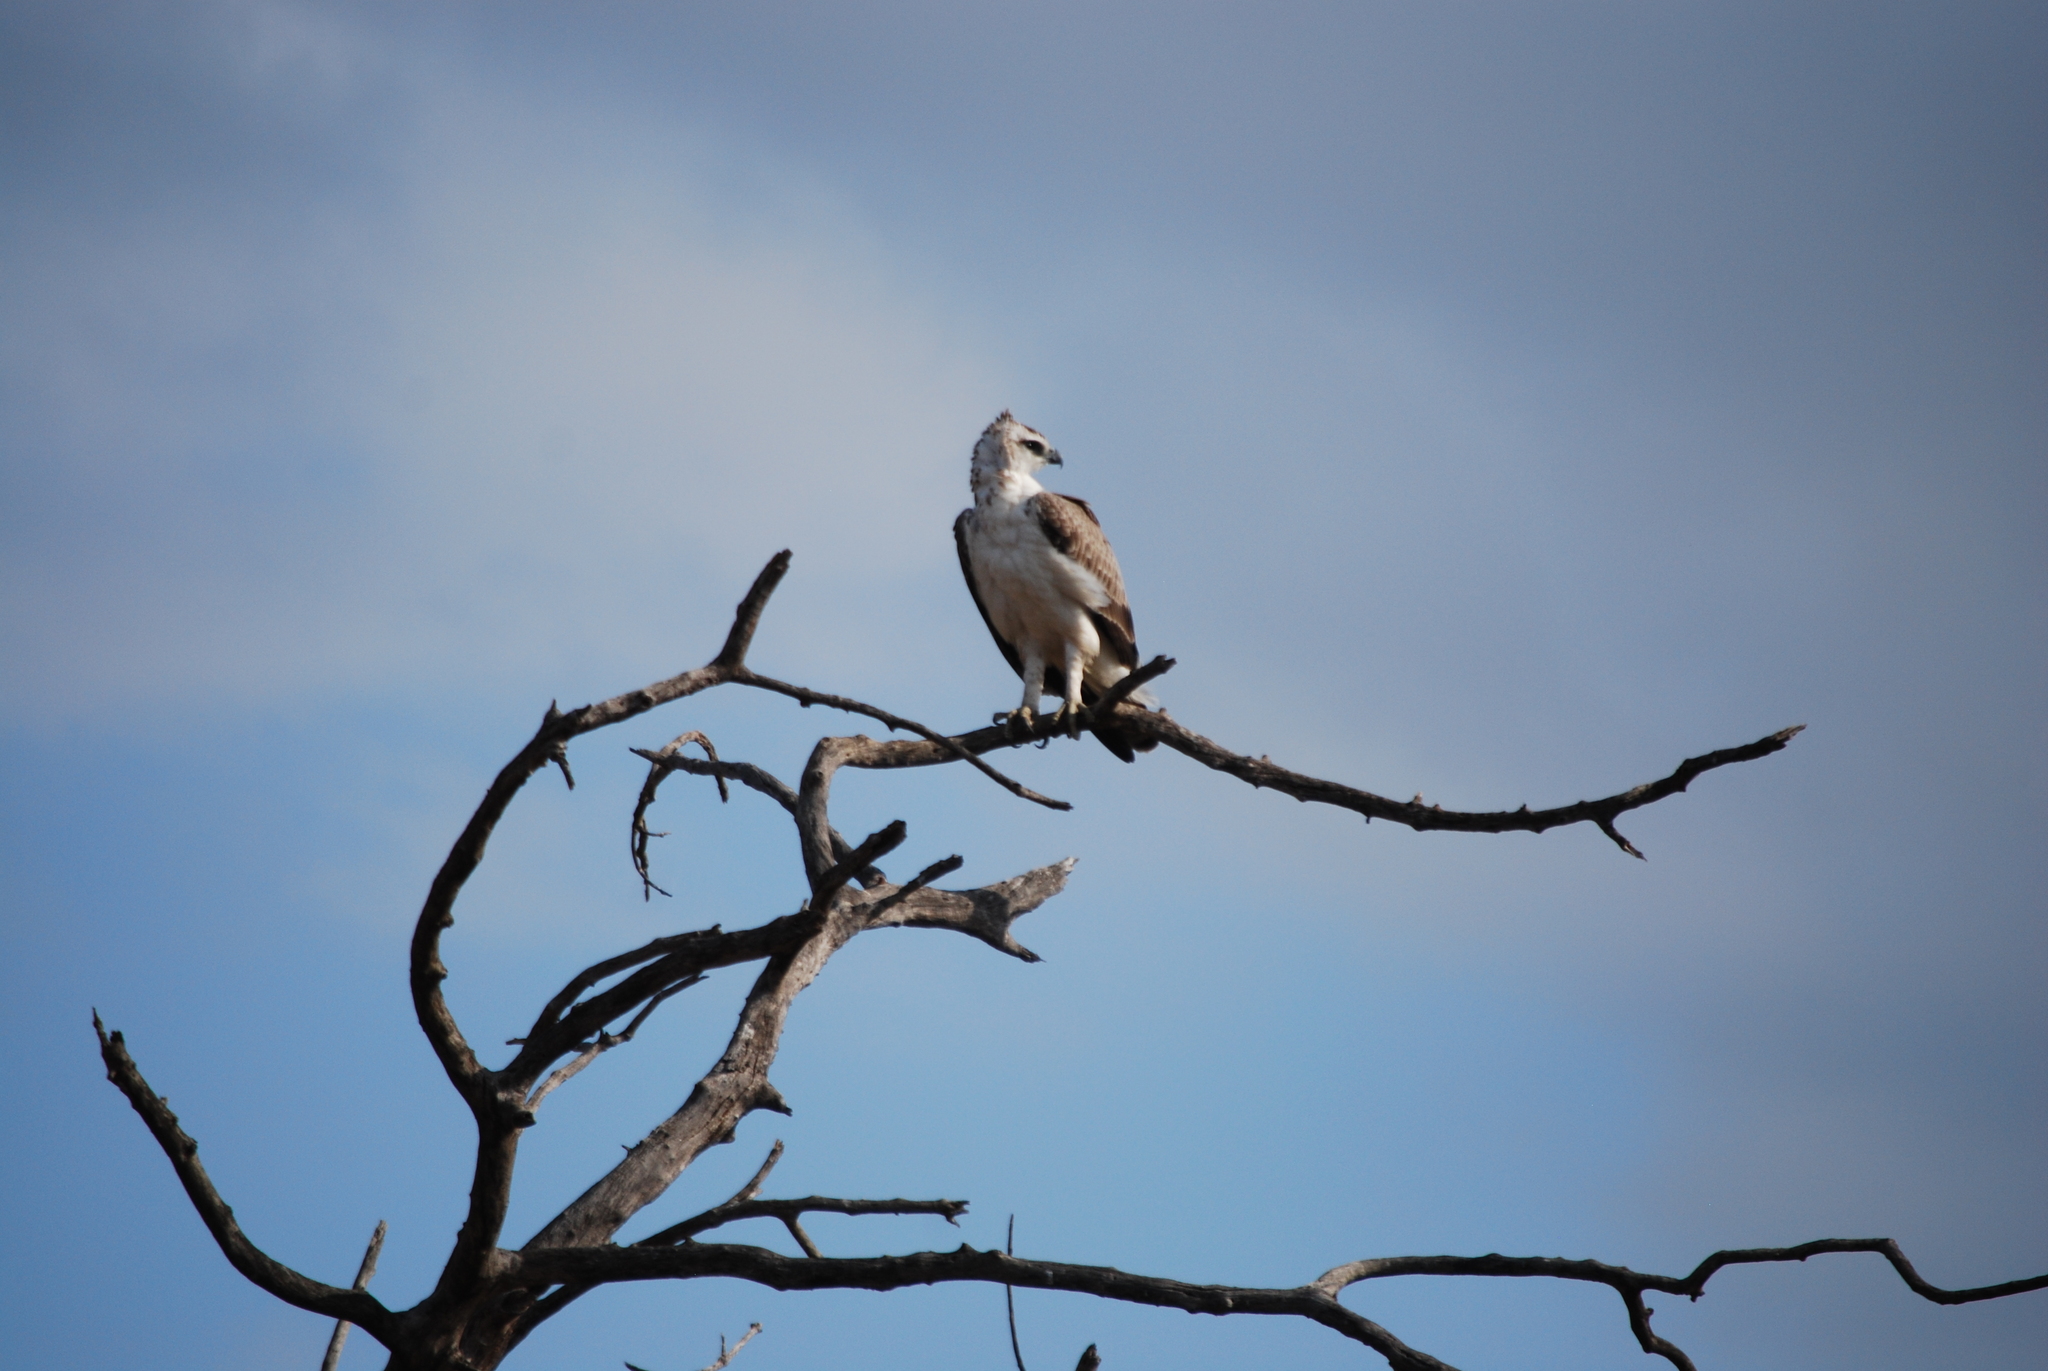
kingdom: Animalia
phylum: Chordata
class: Aves
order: Accipitriformes
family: Accipitridae
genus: Polemaetus
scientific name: Polemaetus bellicosus
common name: Martial eagle
